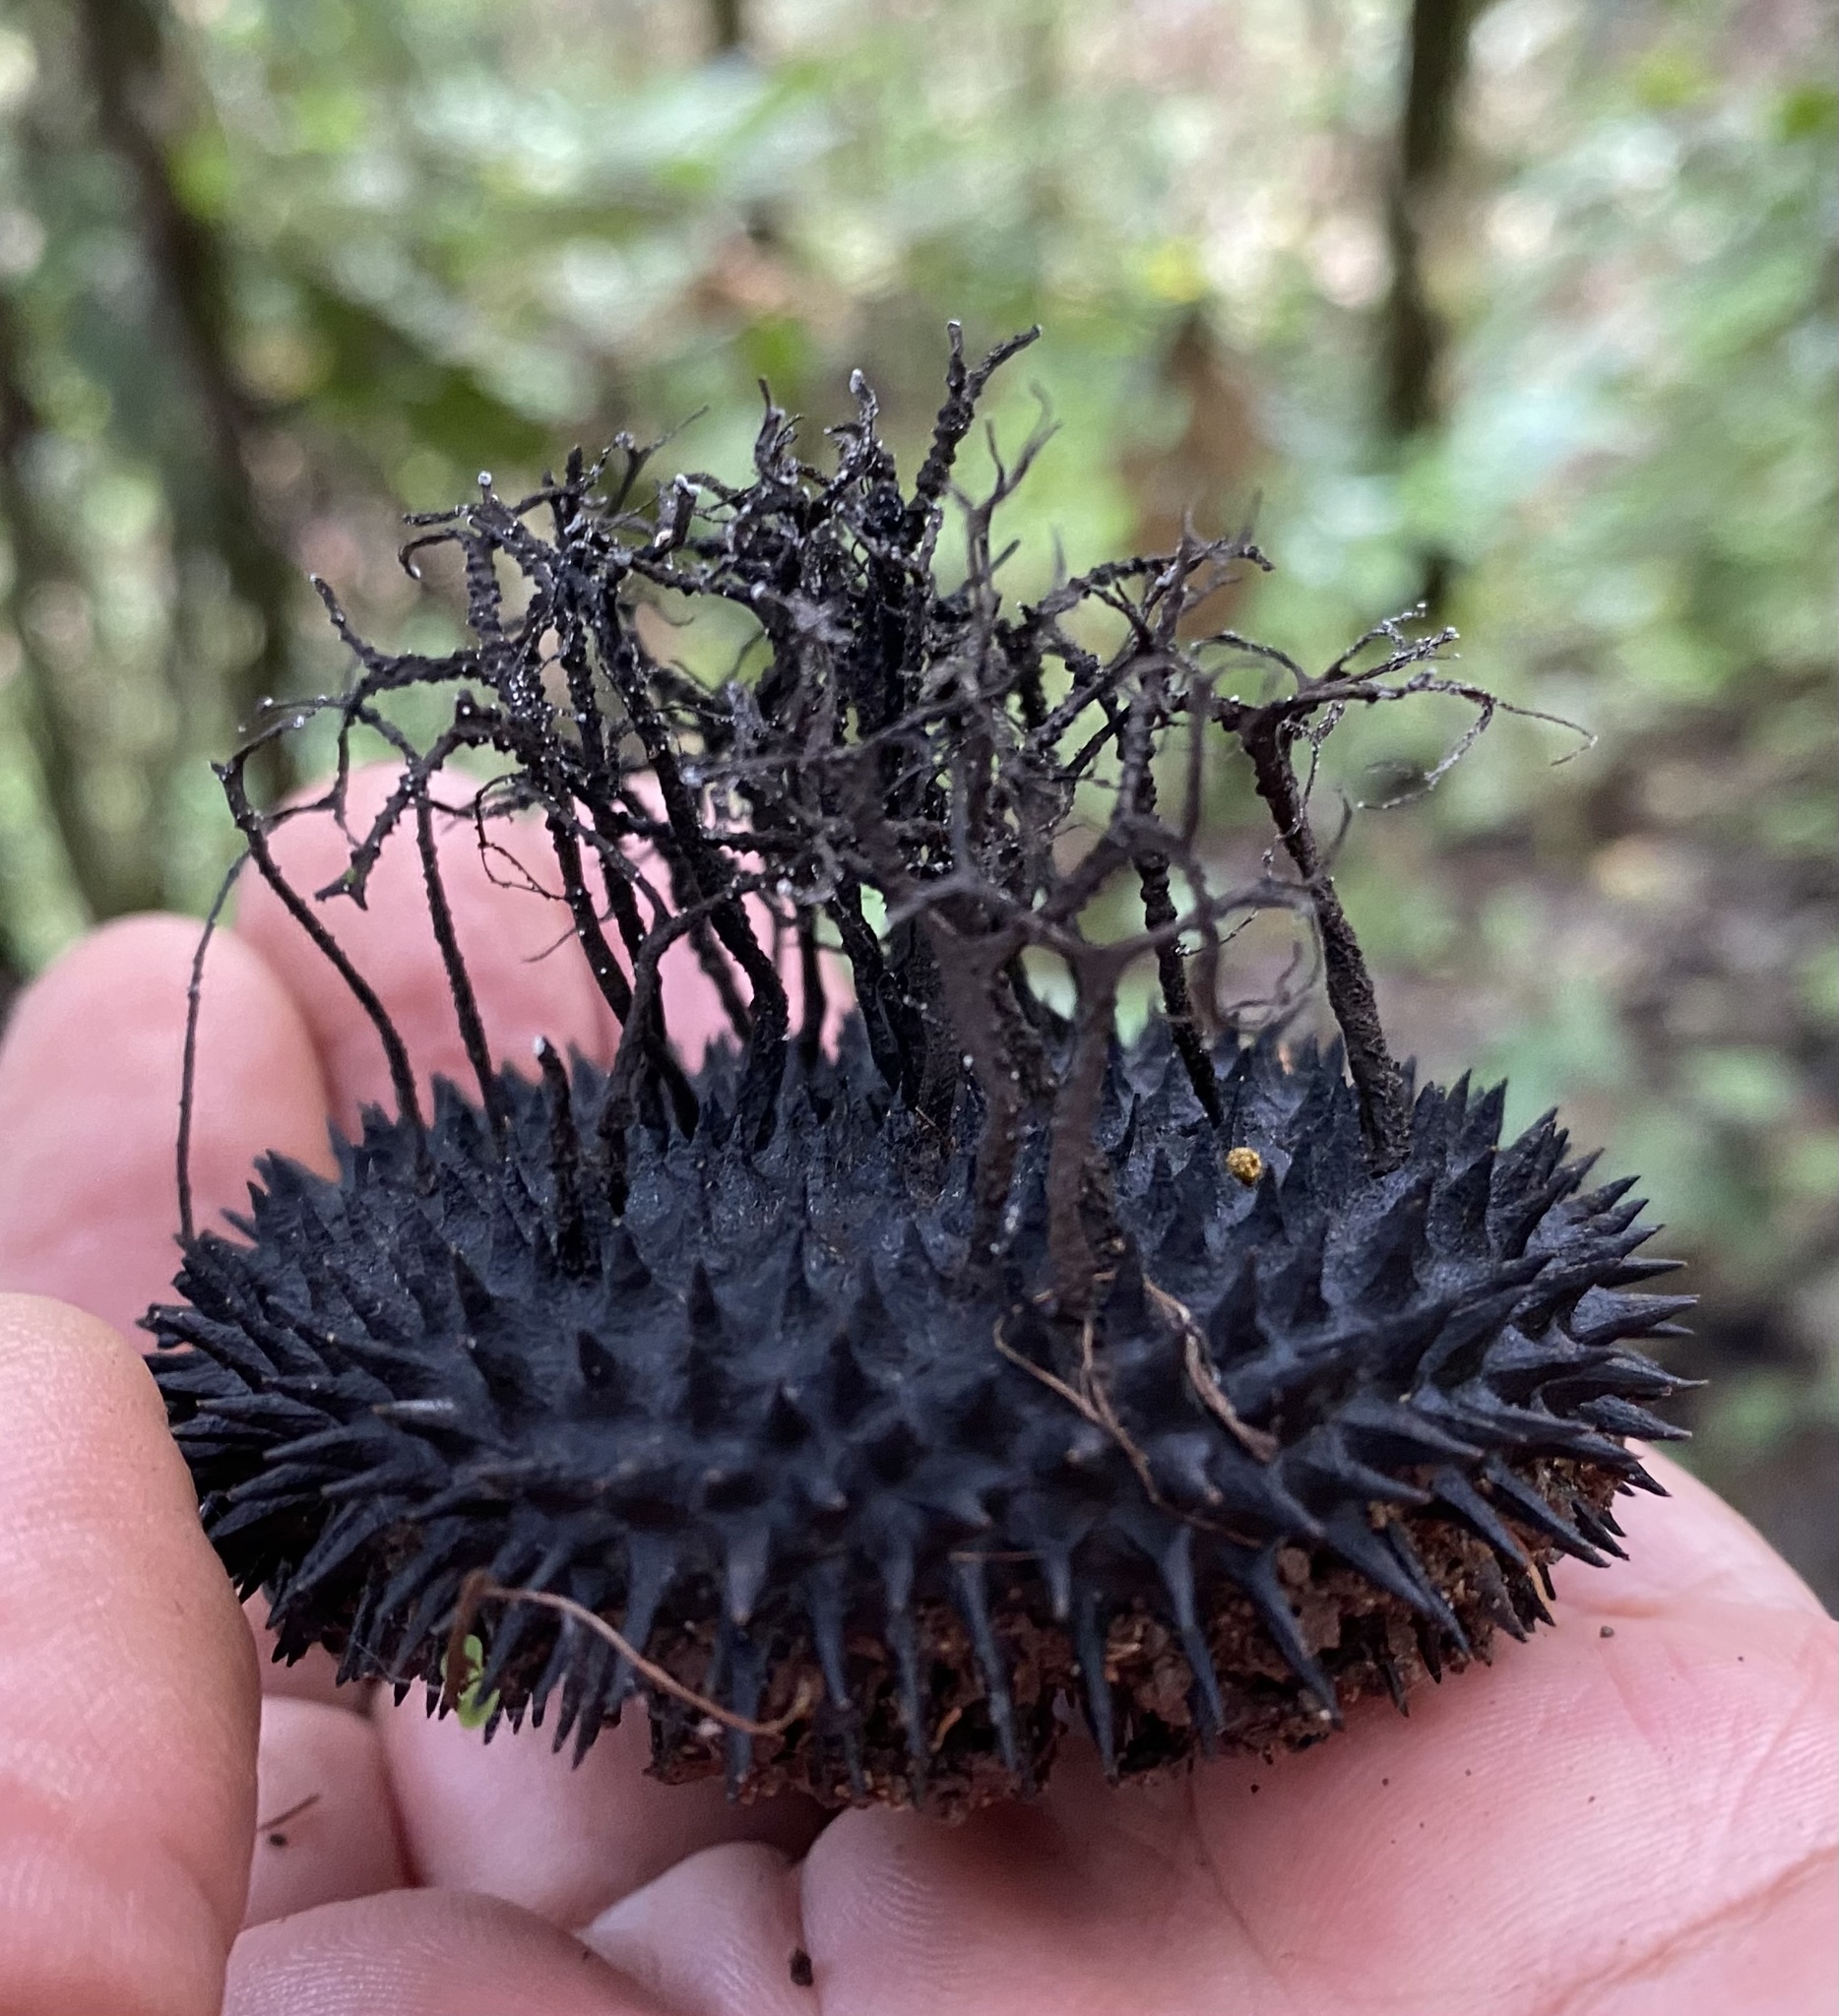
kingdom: Fungi
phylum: Ascomycota
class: Sordariomycetes
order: Xylariales
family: Xylariaceae
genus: Xylaria
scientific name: Xylaria apeibae
